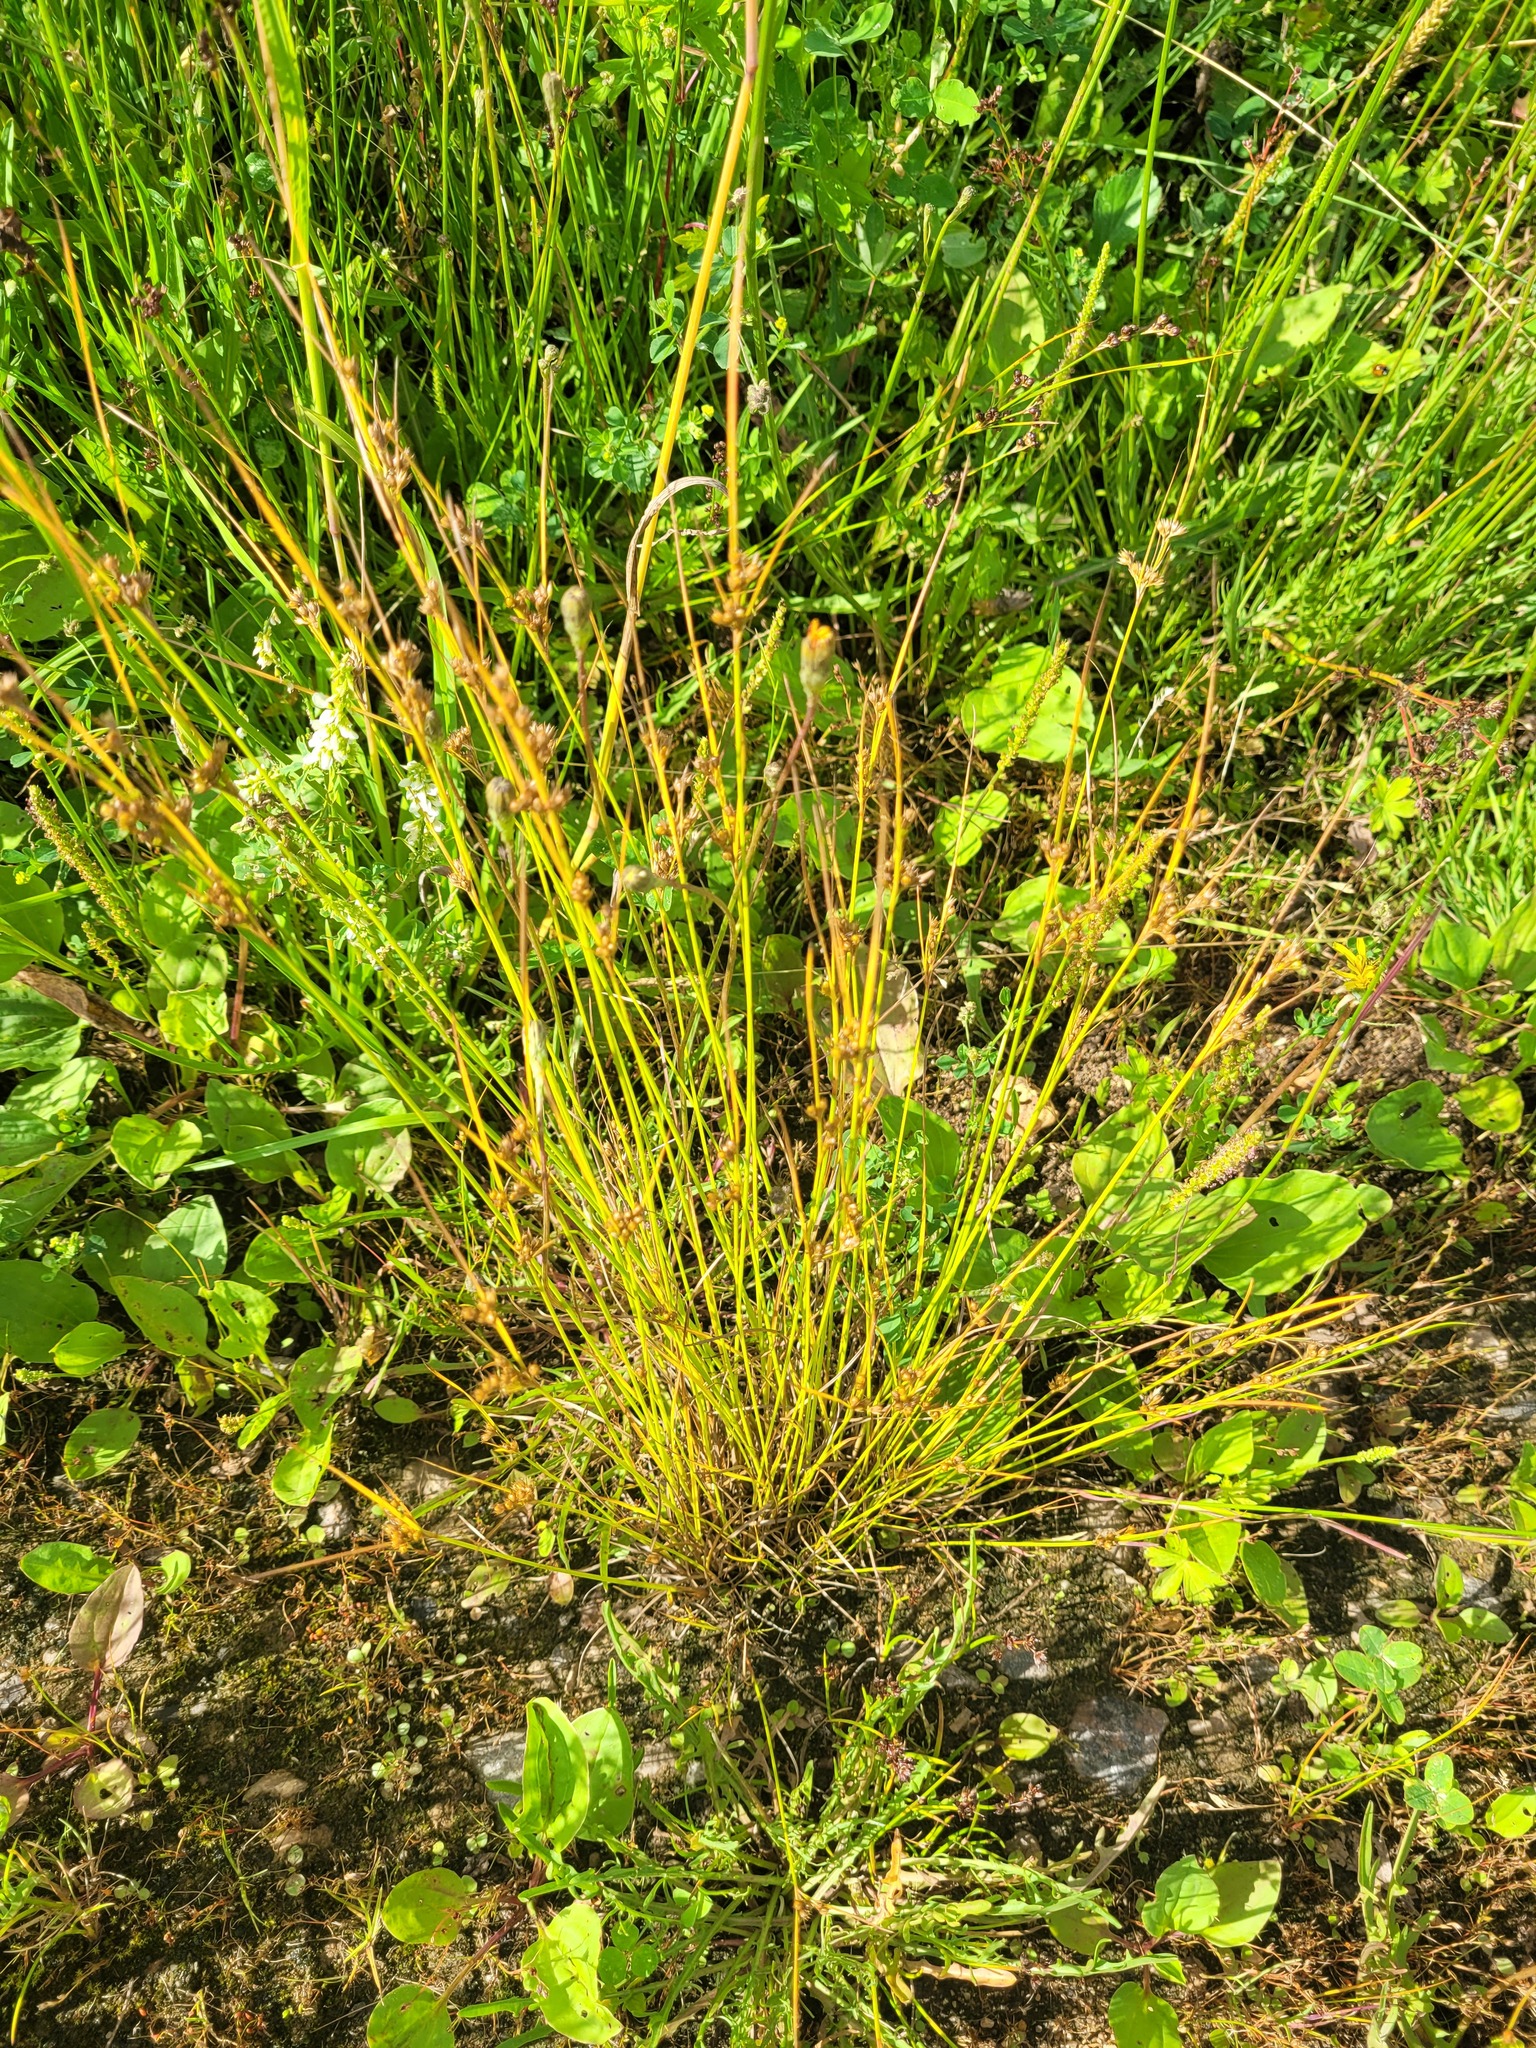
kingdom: Plantae
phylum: Tracheophyta
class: Liliopsida
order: Poales
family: Juncaceae
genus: Juncus
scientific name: Juncus tenuis
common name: Slender rush
